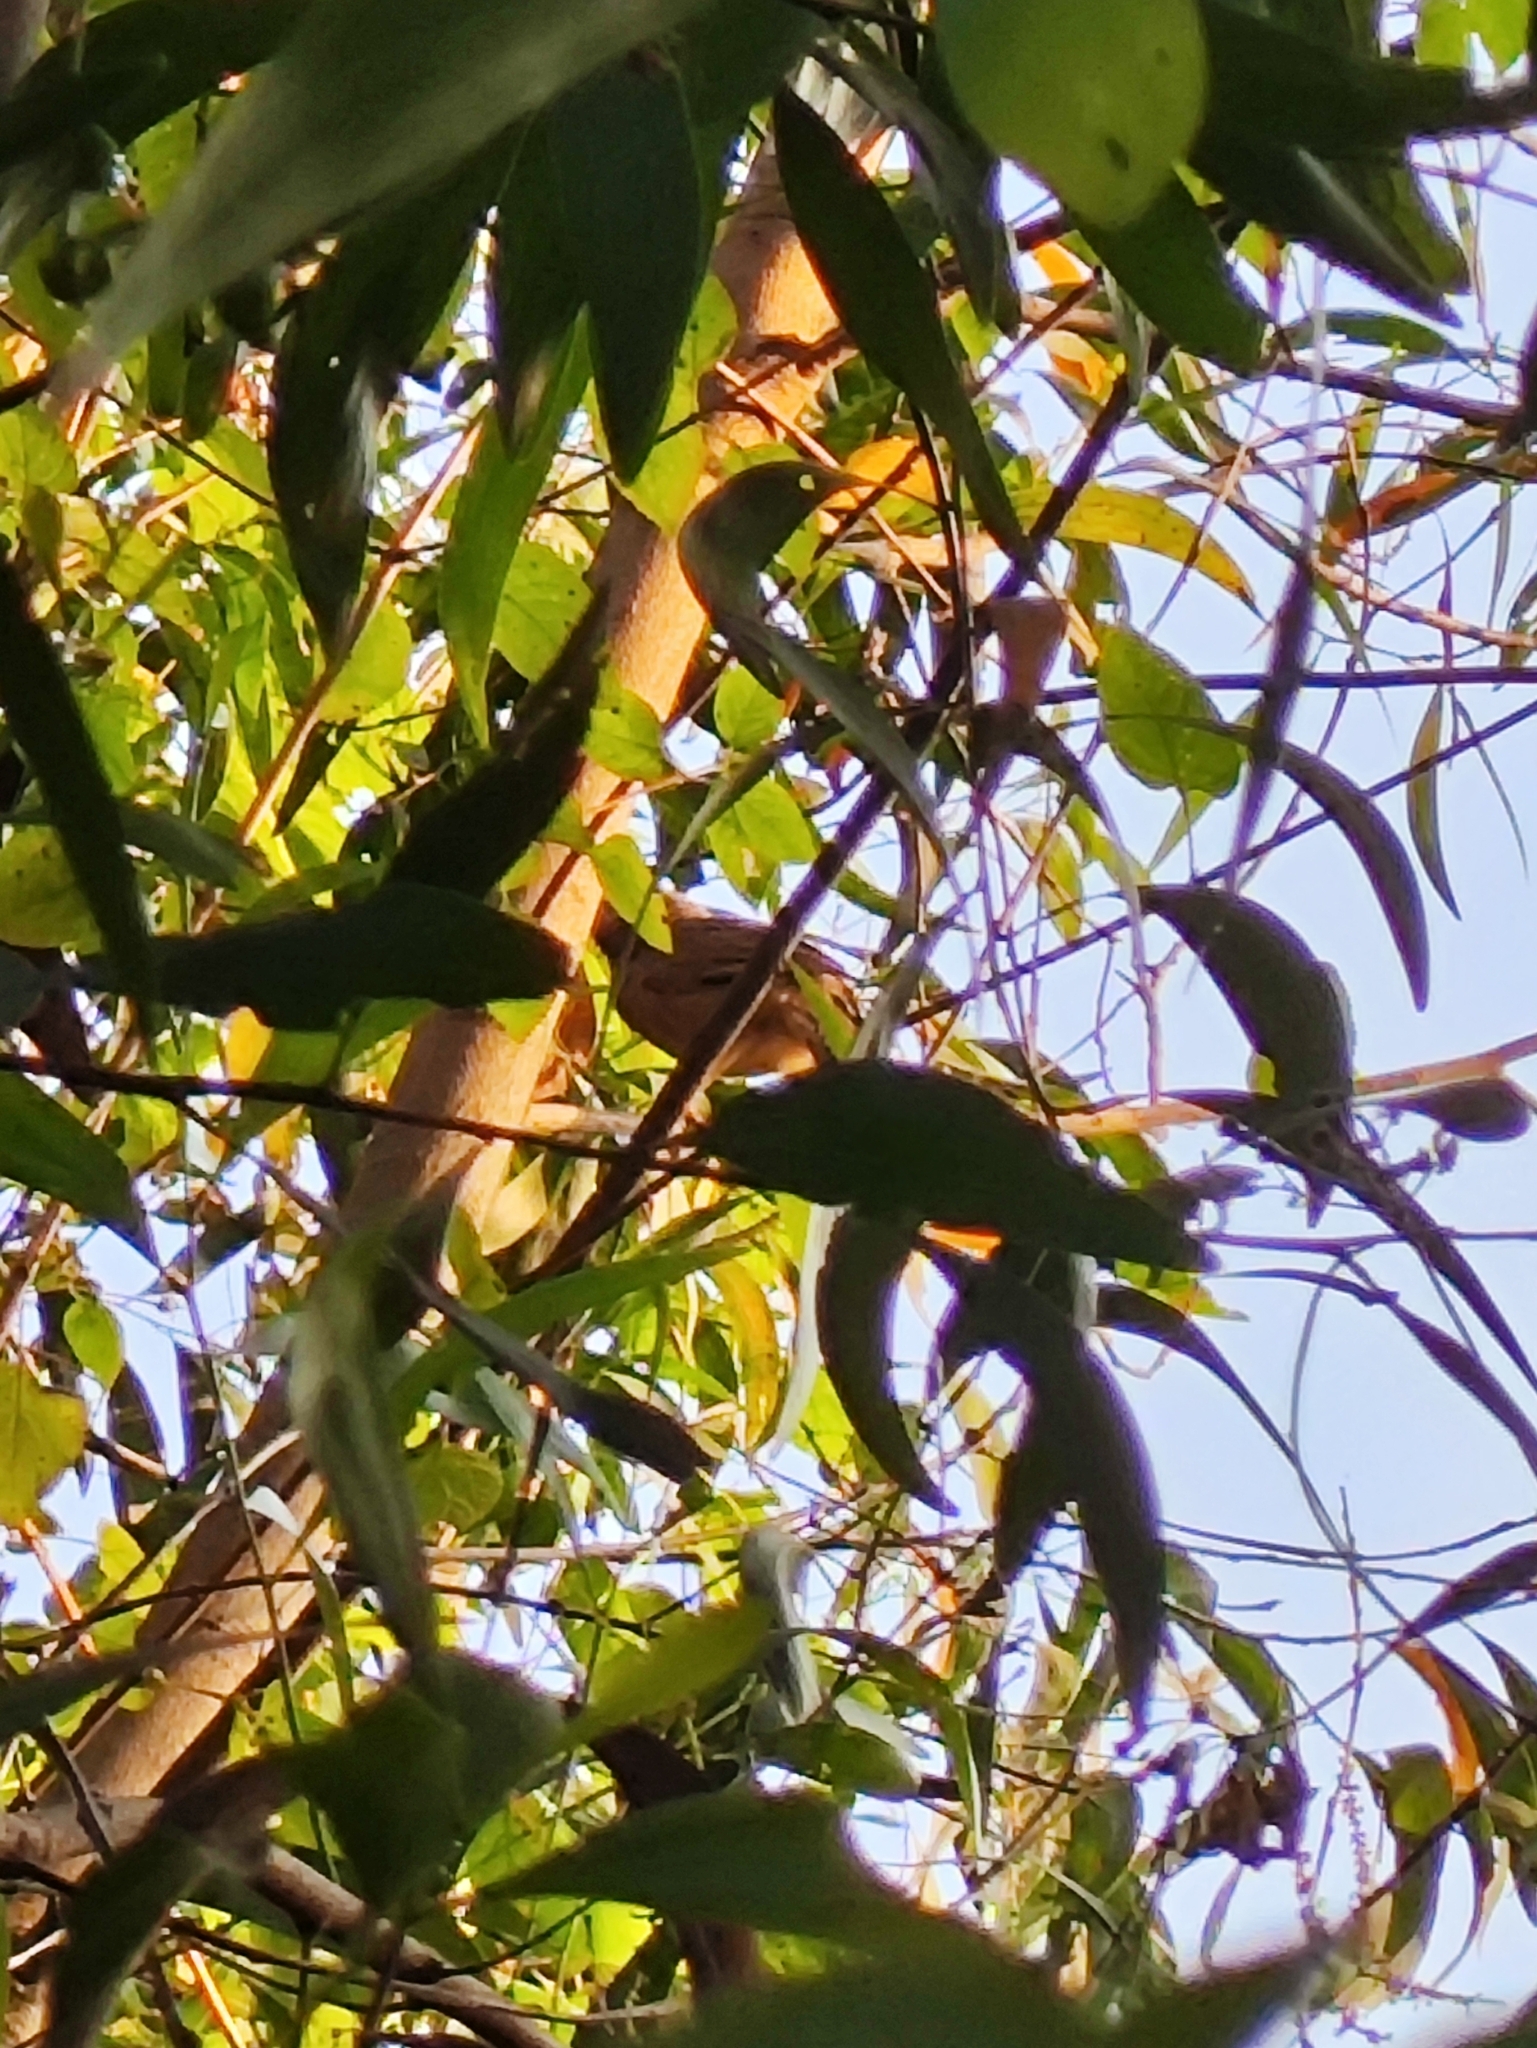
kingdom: Animalia
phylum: Chordata
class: Aves
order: Passeriformes
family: Leiothrichidae
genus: Turdoides
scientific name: Turdoides affinis
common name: Yellow-billed babbler
